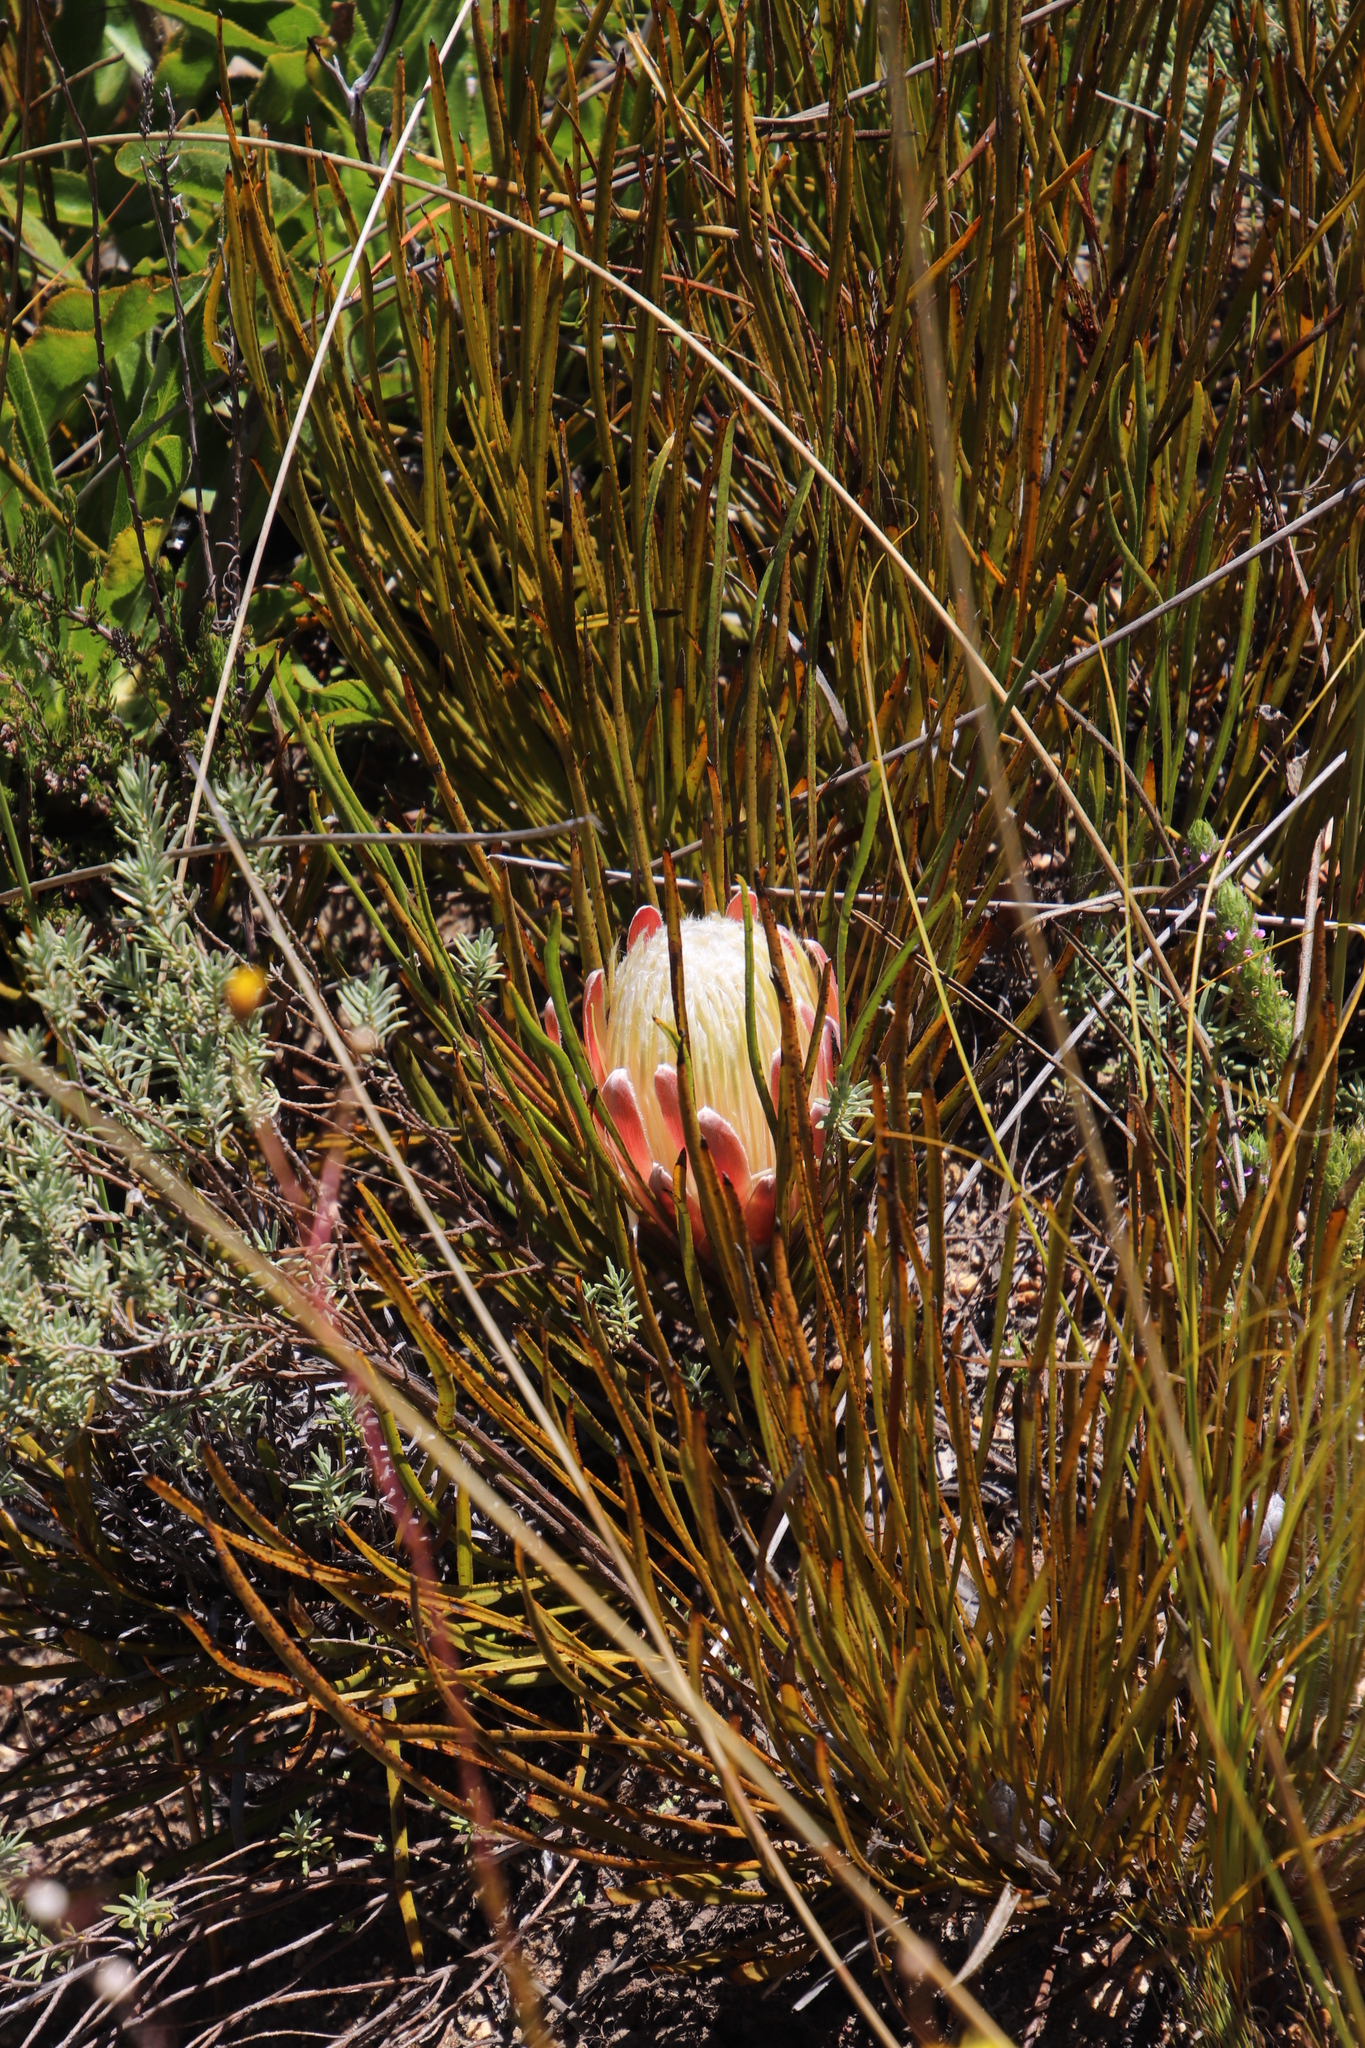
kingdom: Plantae
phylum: Tracheophyta
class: Magnoliopsida
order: Proteales
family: Proteaceae
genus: Protea
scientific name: Protea scorzonerifolia
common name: Channel-leaf sugarbush
